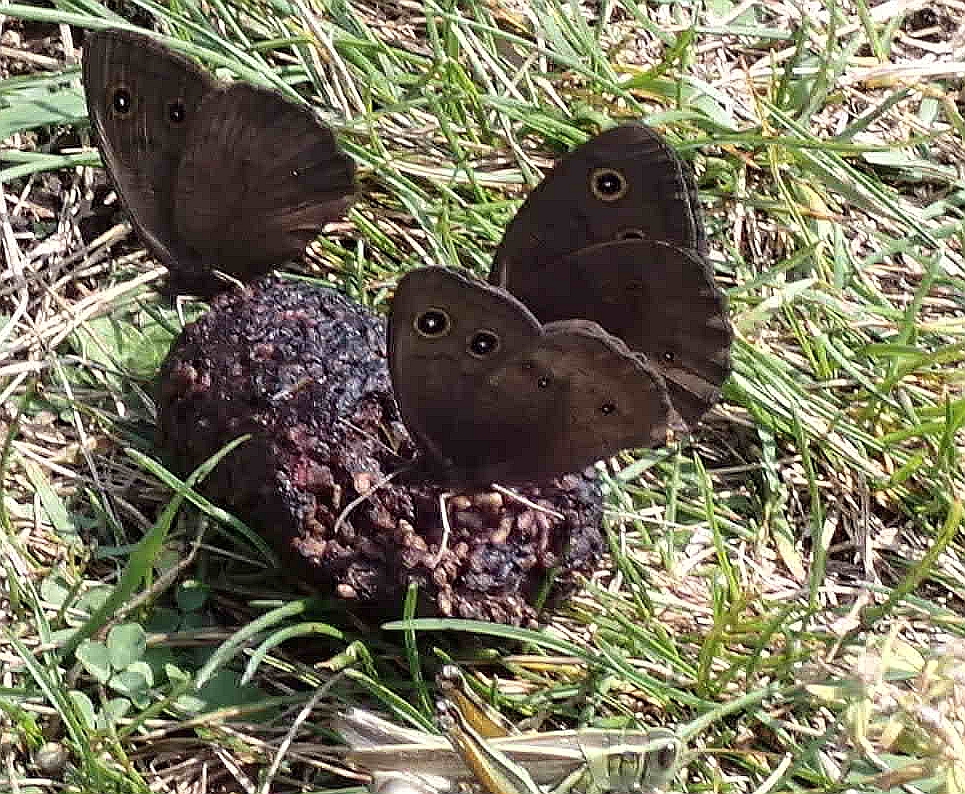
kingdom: Animalia
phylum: Arthropoda
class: Insecta
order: Lepidoptera
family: Nymphalidae
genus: Cercyonis
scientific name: Cercyonis pegala
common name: Common wood-nymph
